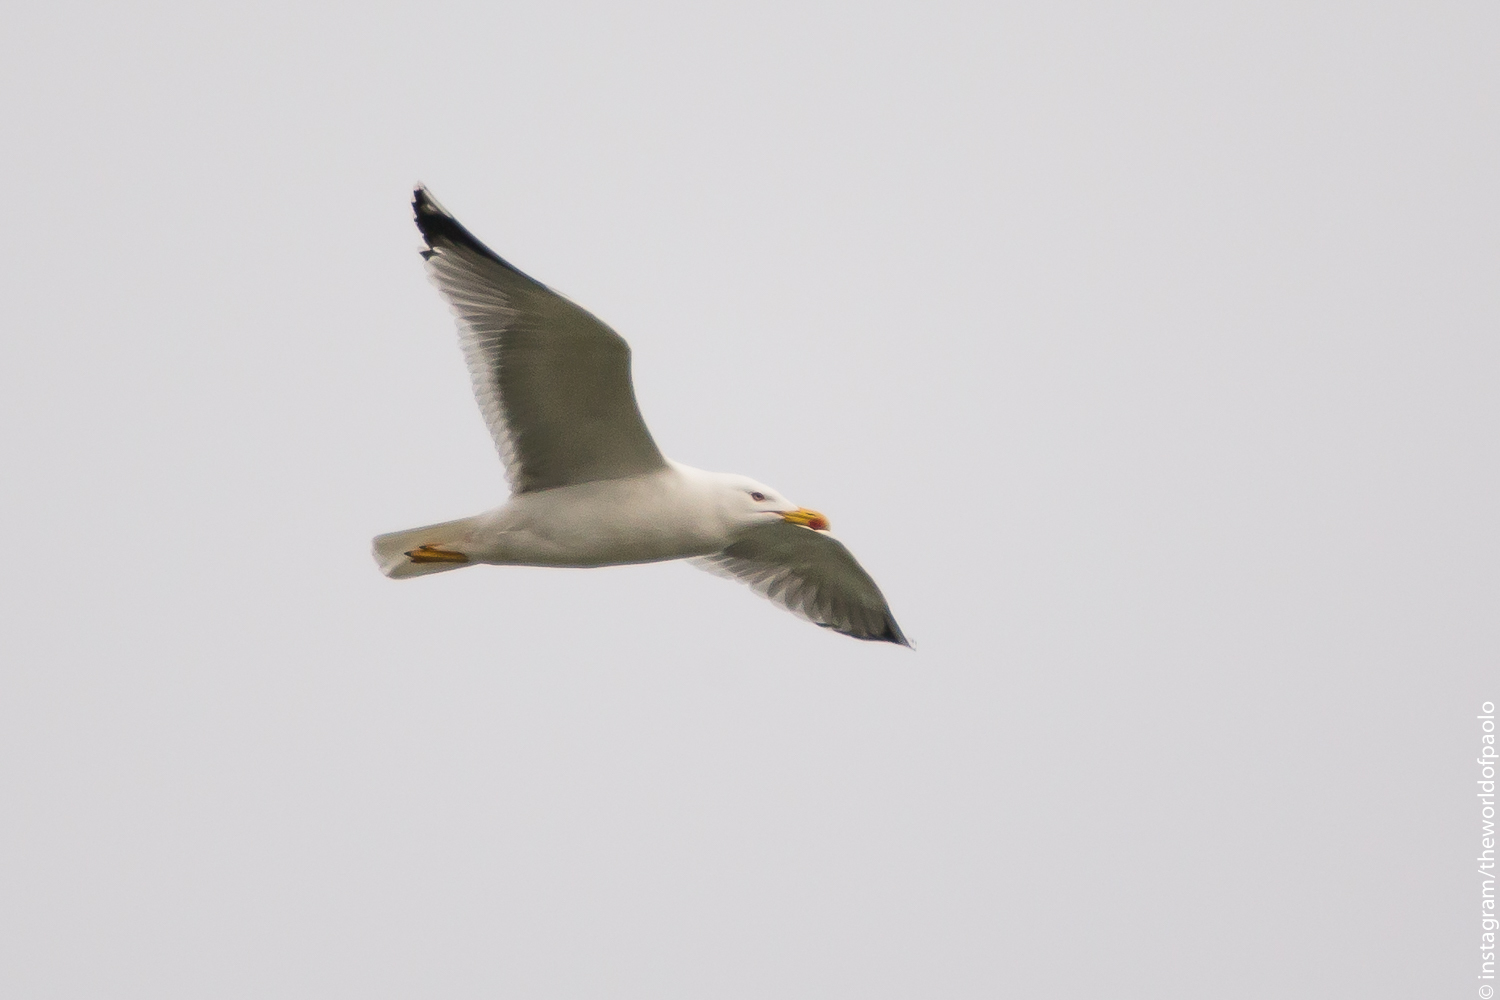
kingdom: Animalia
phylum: Chordata
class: Aves
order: Charadriiformes
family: Laridae
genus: Larus
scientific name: Larus michahellis
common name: Yellow-legged gull
